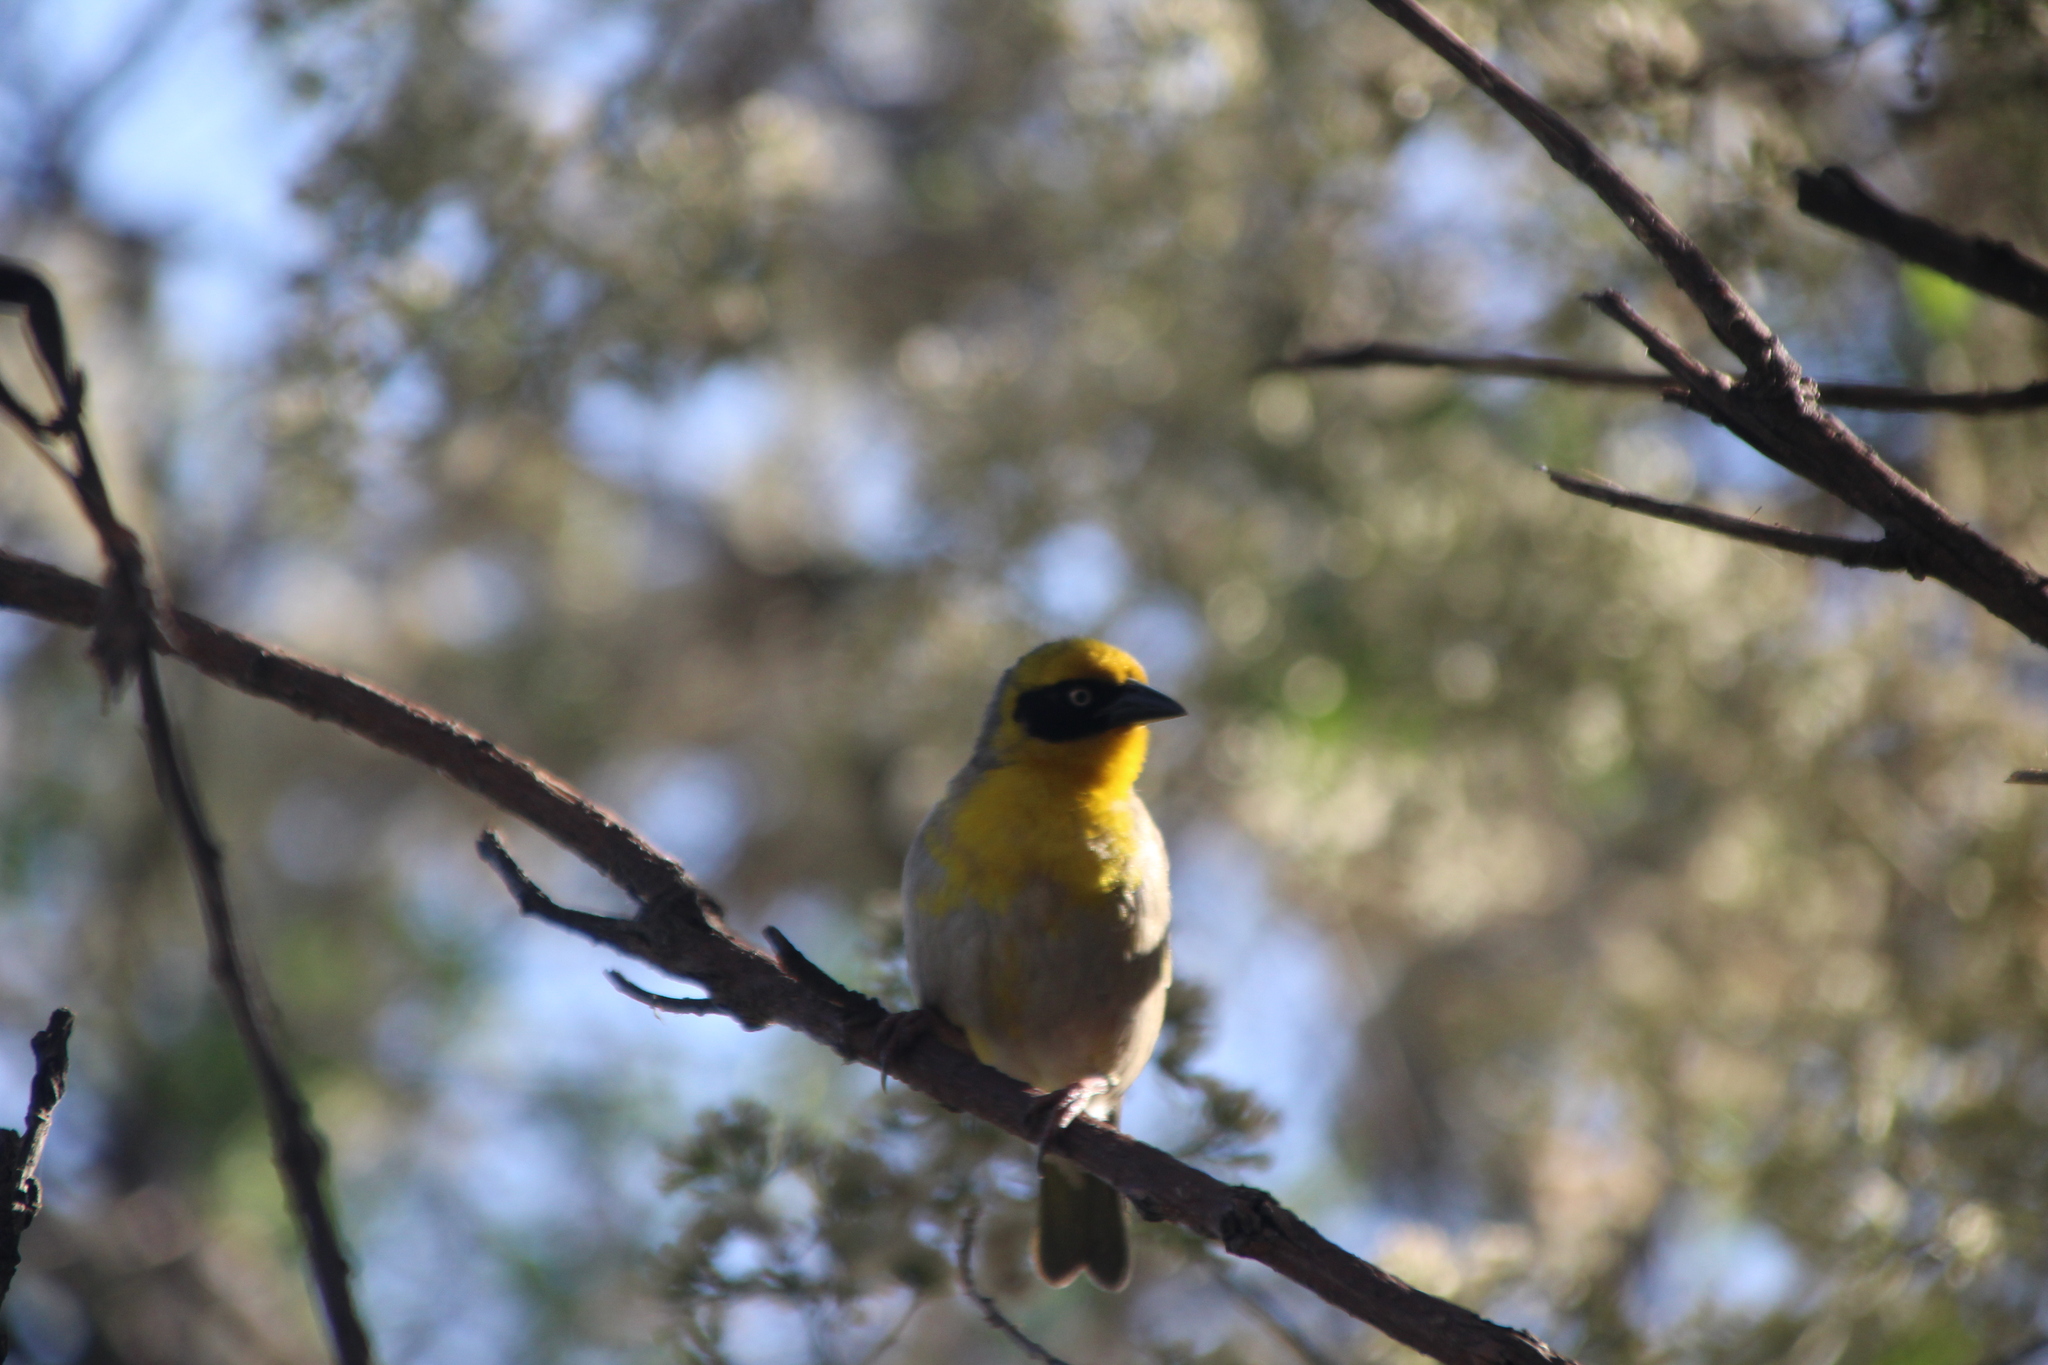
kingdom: Animalia
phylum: Chordata
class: Aves
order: Passeriformes
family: Ploceidae
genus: Ploceus
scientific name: Ploceus baglafecht
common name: Baglafecht weaver
